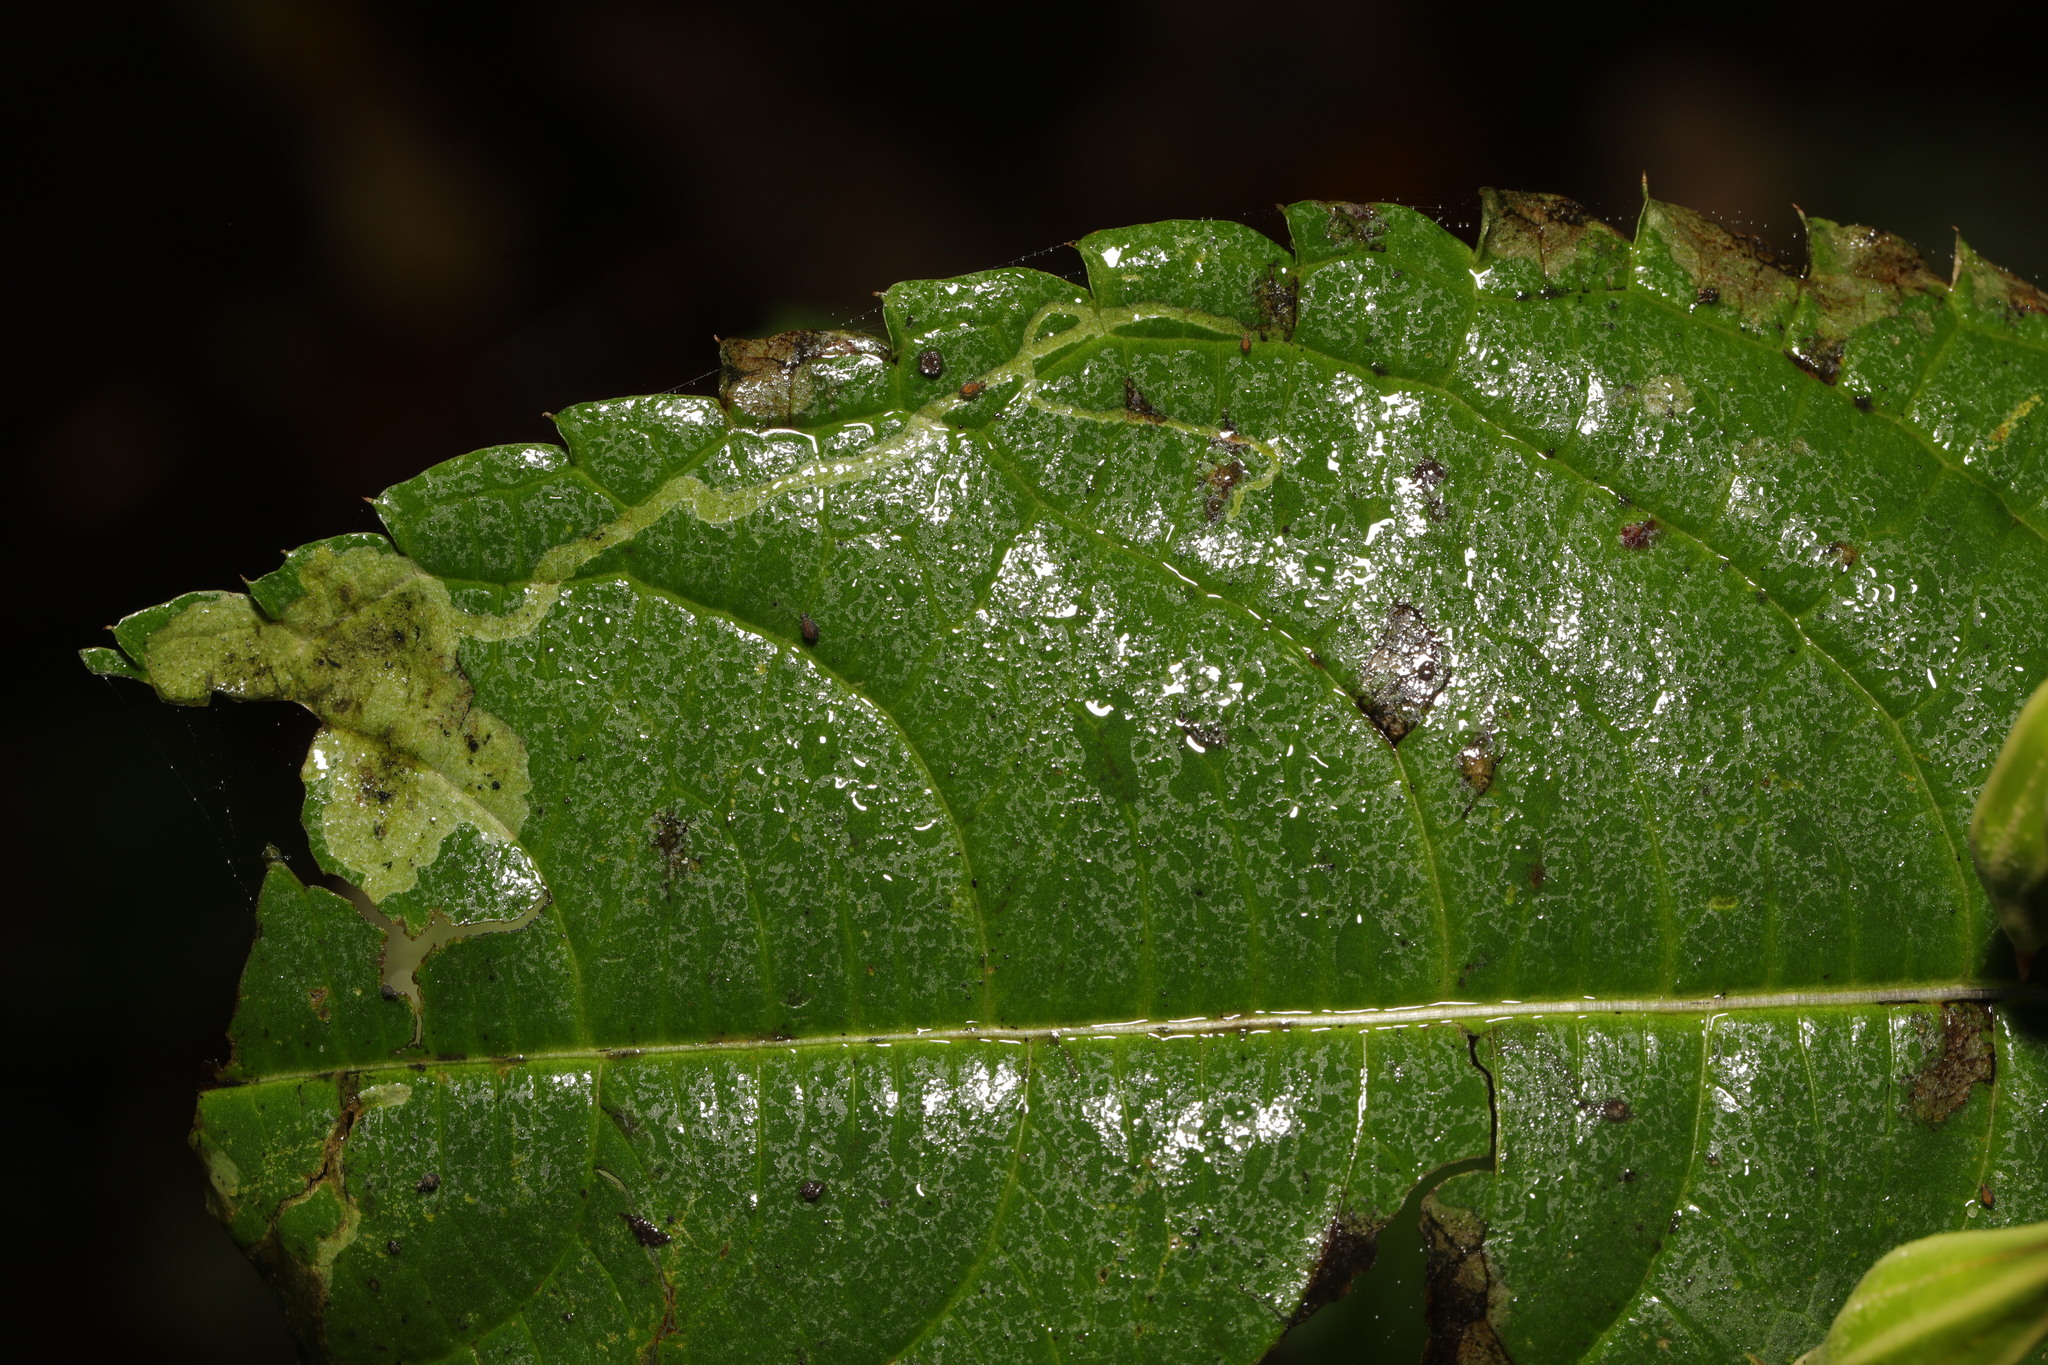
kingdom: Animalia
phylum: Arthropoda
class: Insecta
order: Diptera
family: Agromyzidae
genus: Phytoliriomyza
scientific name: Phytoliriomyza melampyga
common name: Jewelweed leaf-miner fly
